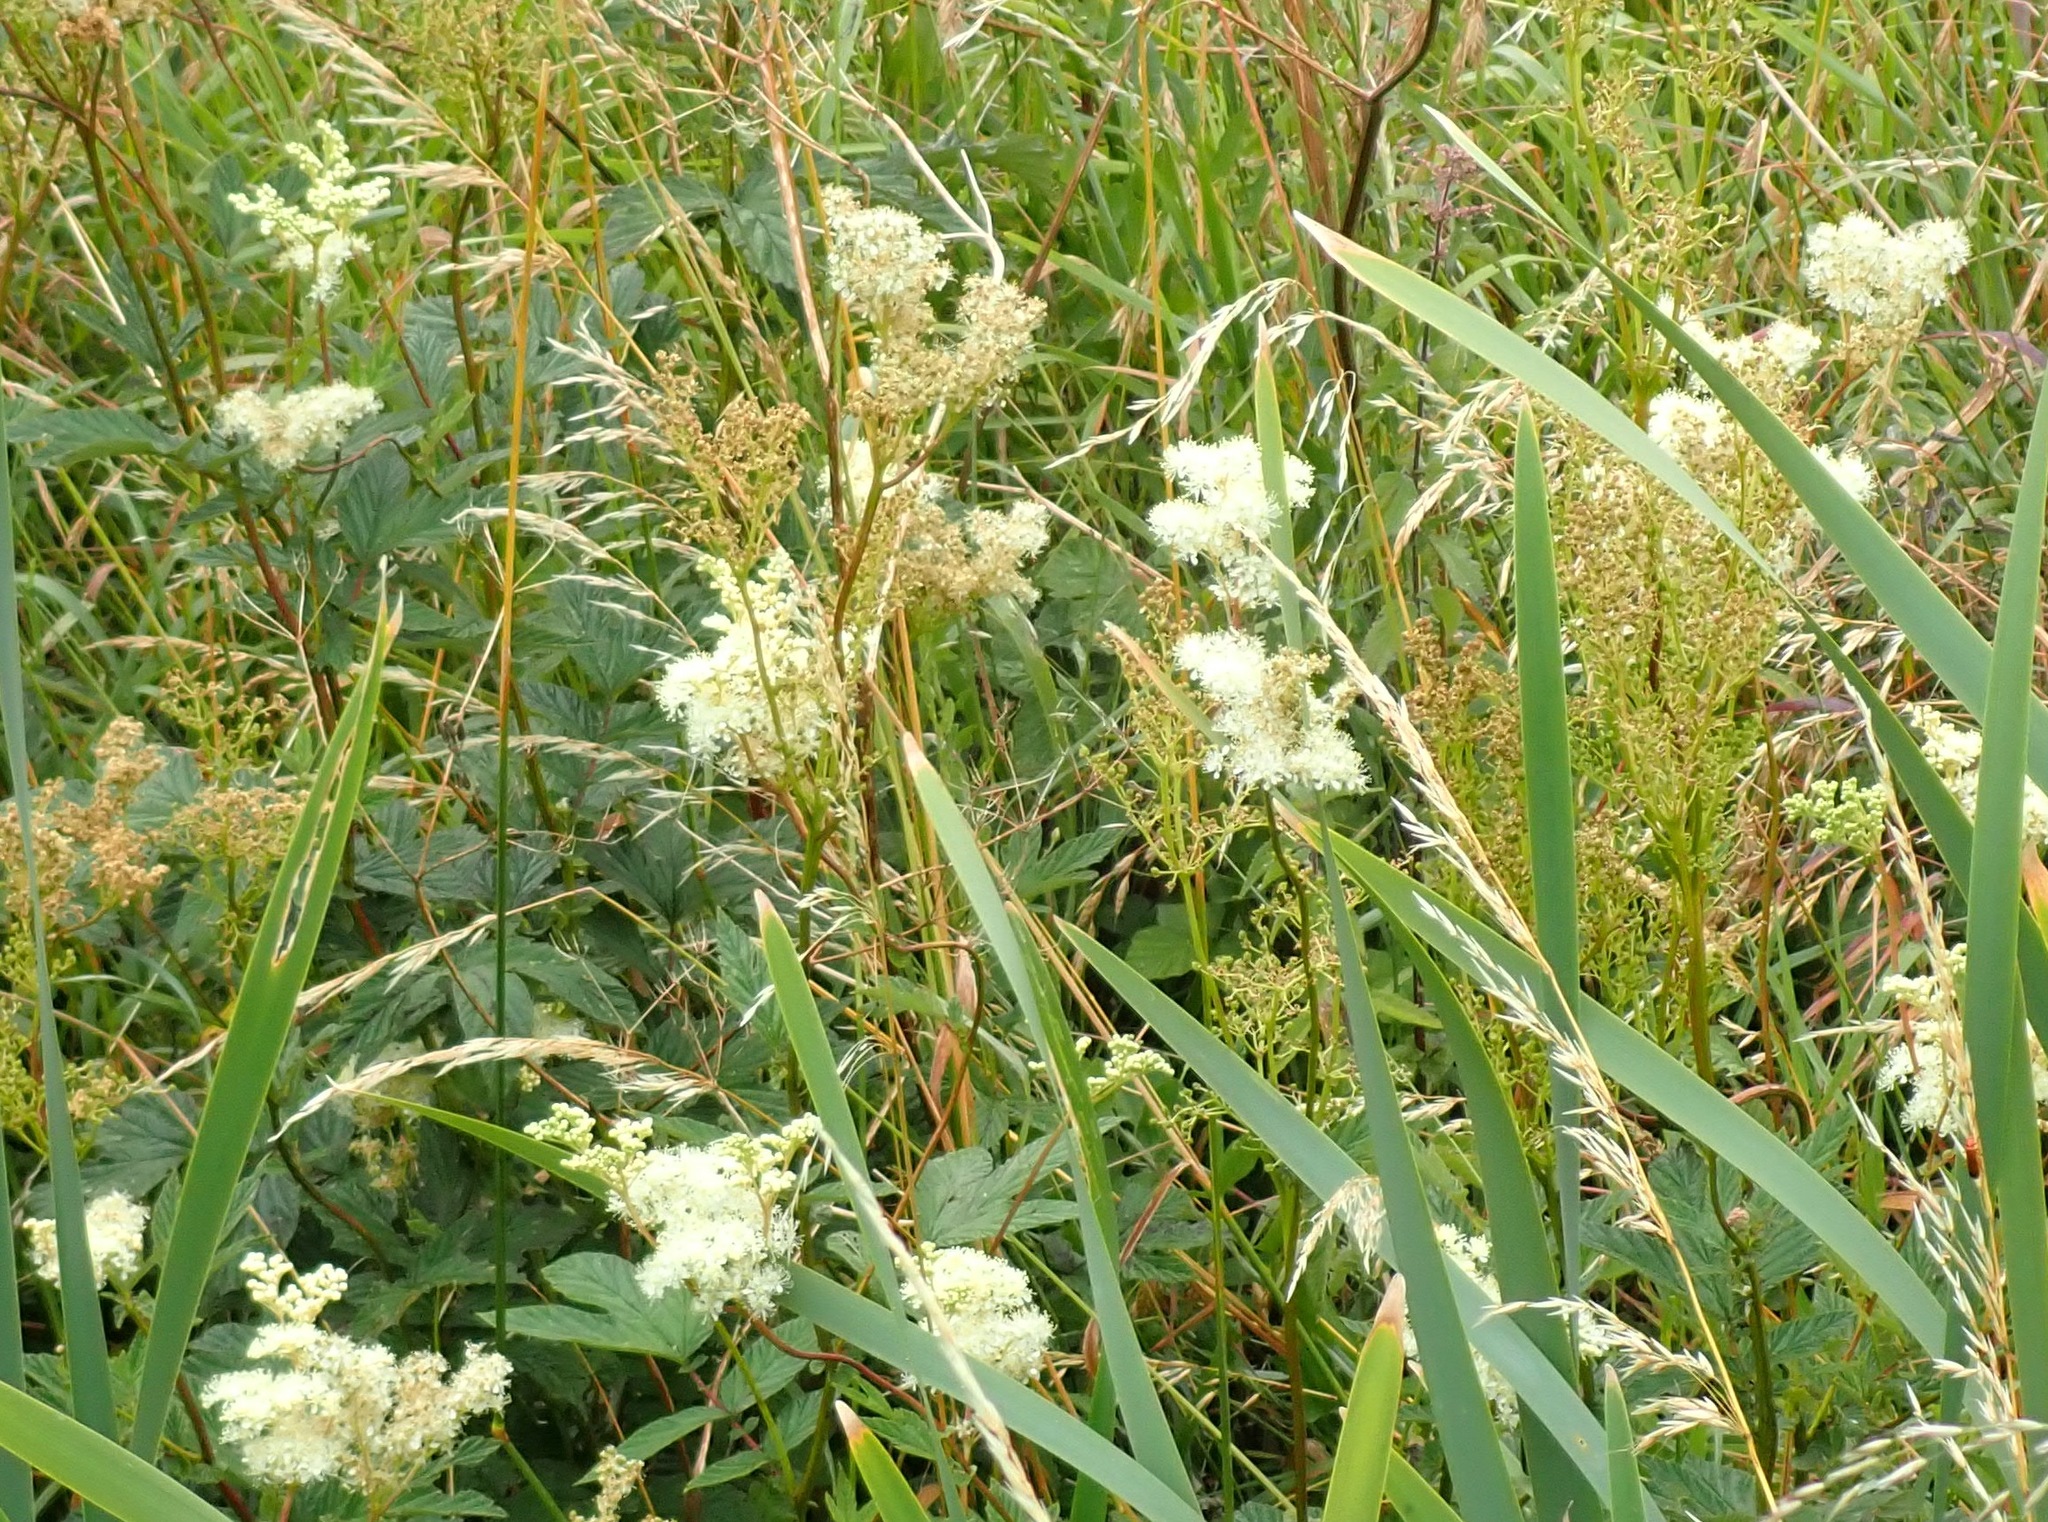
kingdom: Plantae
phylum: Tracheophyta
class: Magnoliopsida
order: Rosales
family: Rosaceae
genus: Filipendula
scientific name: Filipendula ulmaria
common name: Meadowsweet
